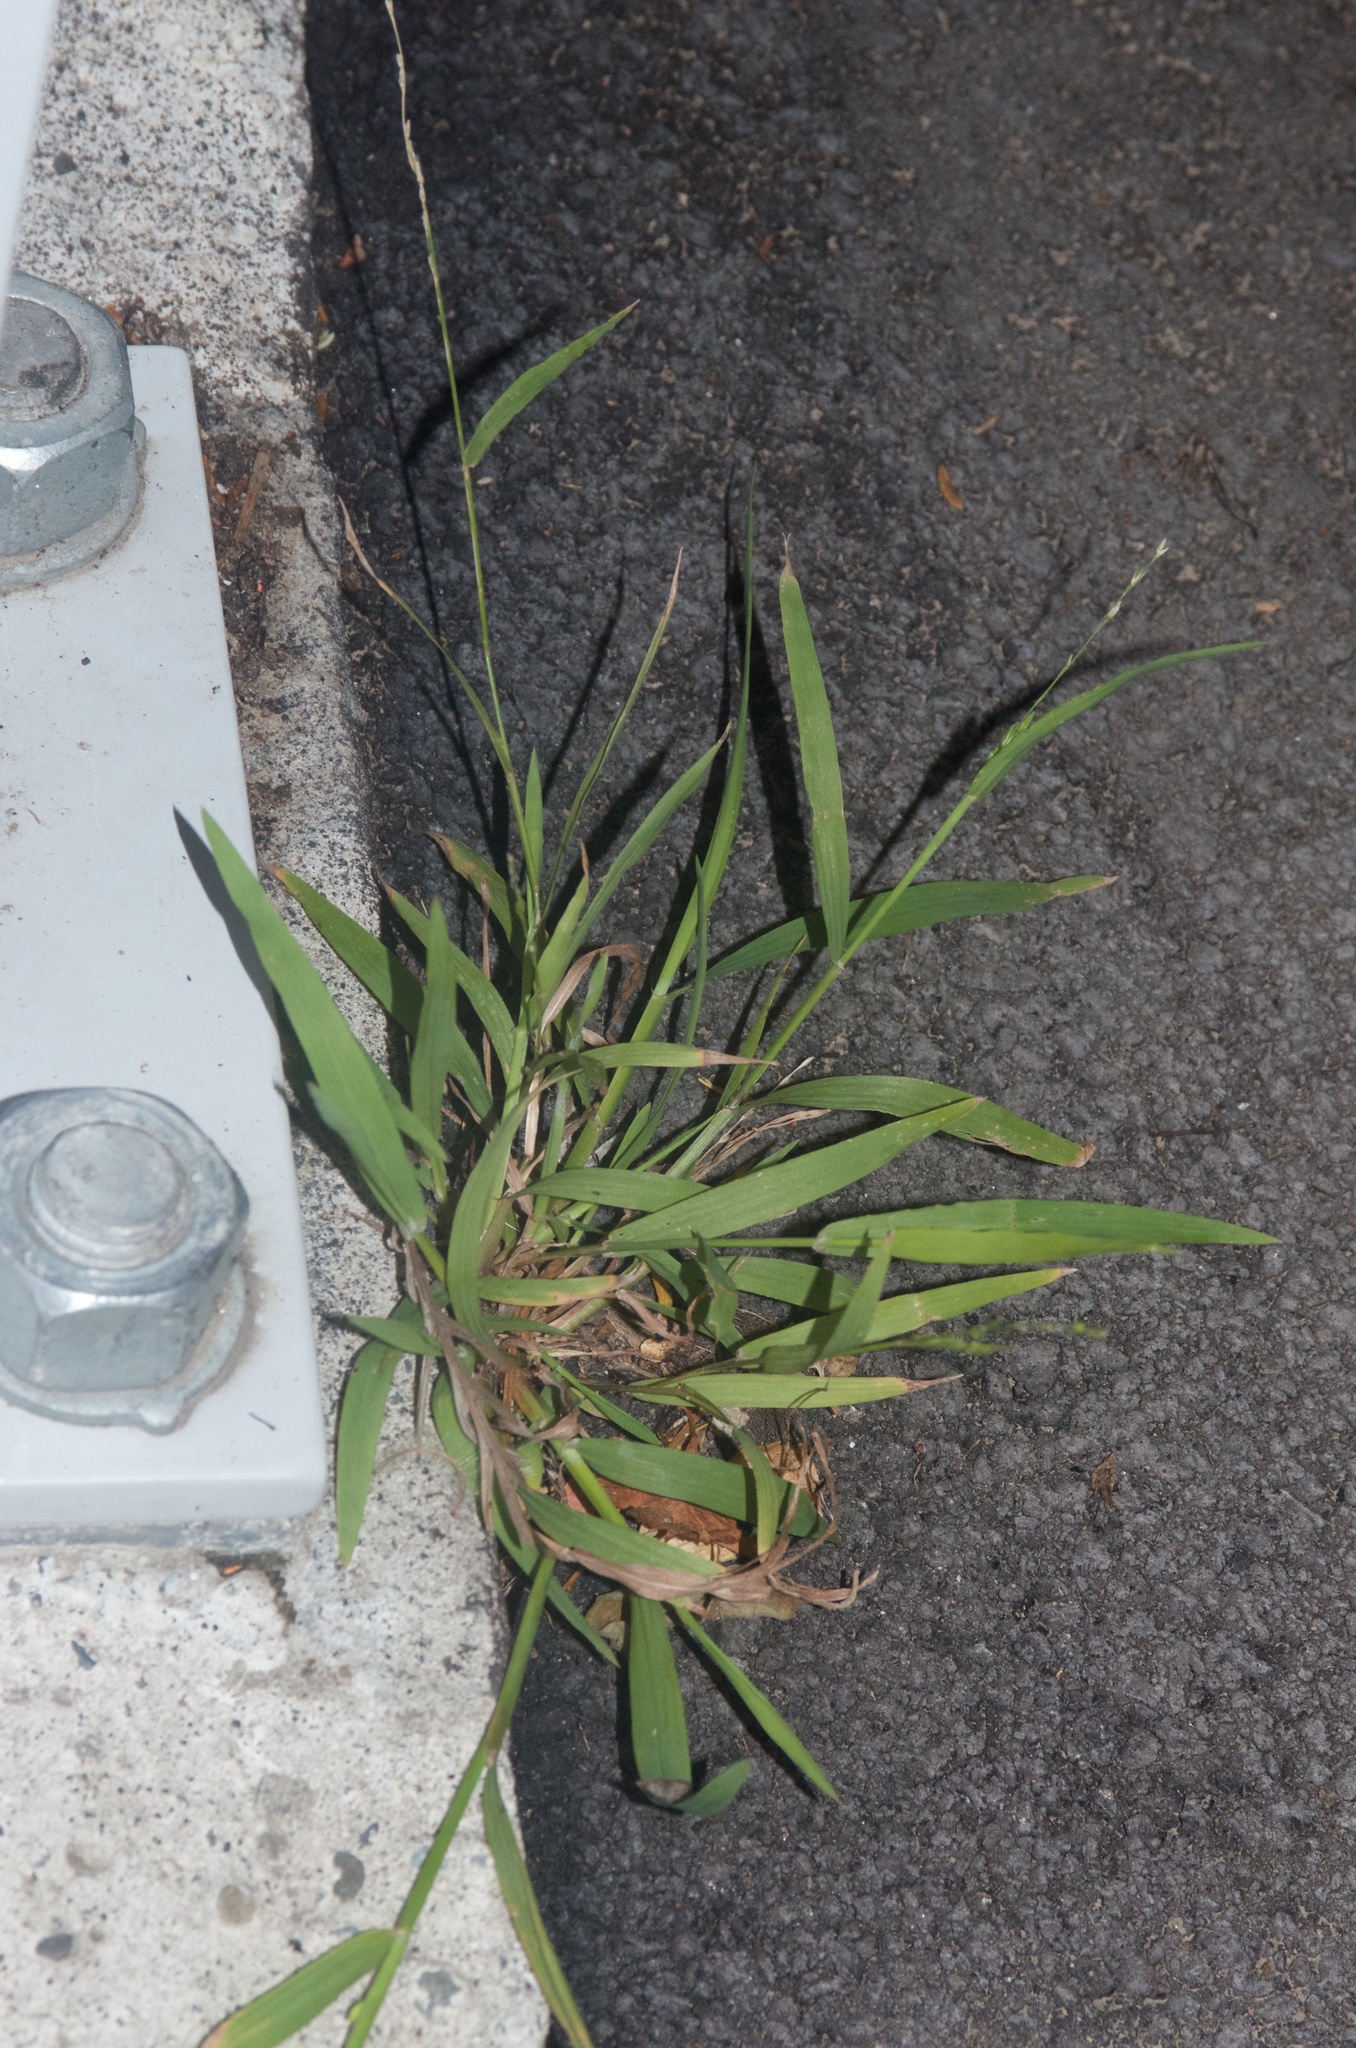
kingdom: Plantae
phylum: Tracheophyta
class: Liliopsida
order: Poales
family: Poaceae
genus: Ehrharta
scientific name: Ehrharta erecta
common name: Panic veldtgrass
